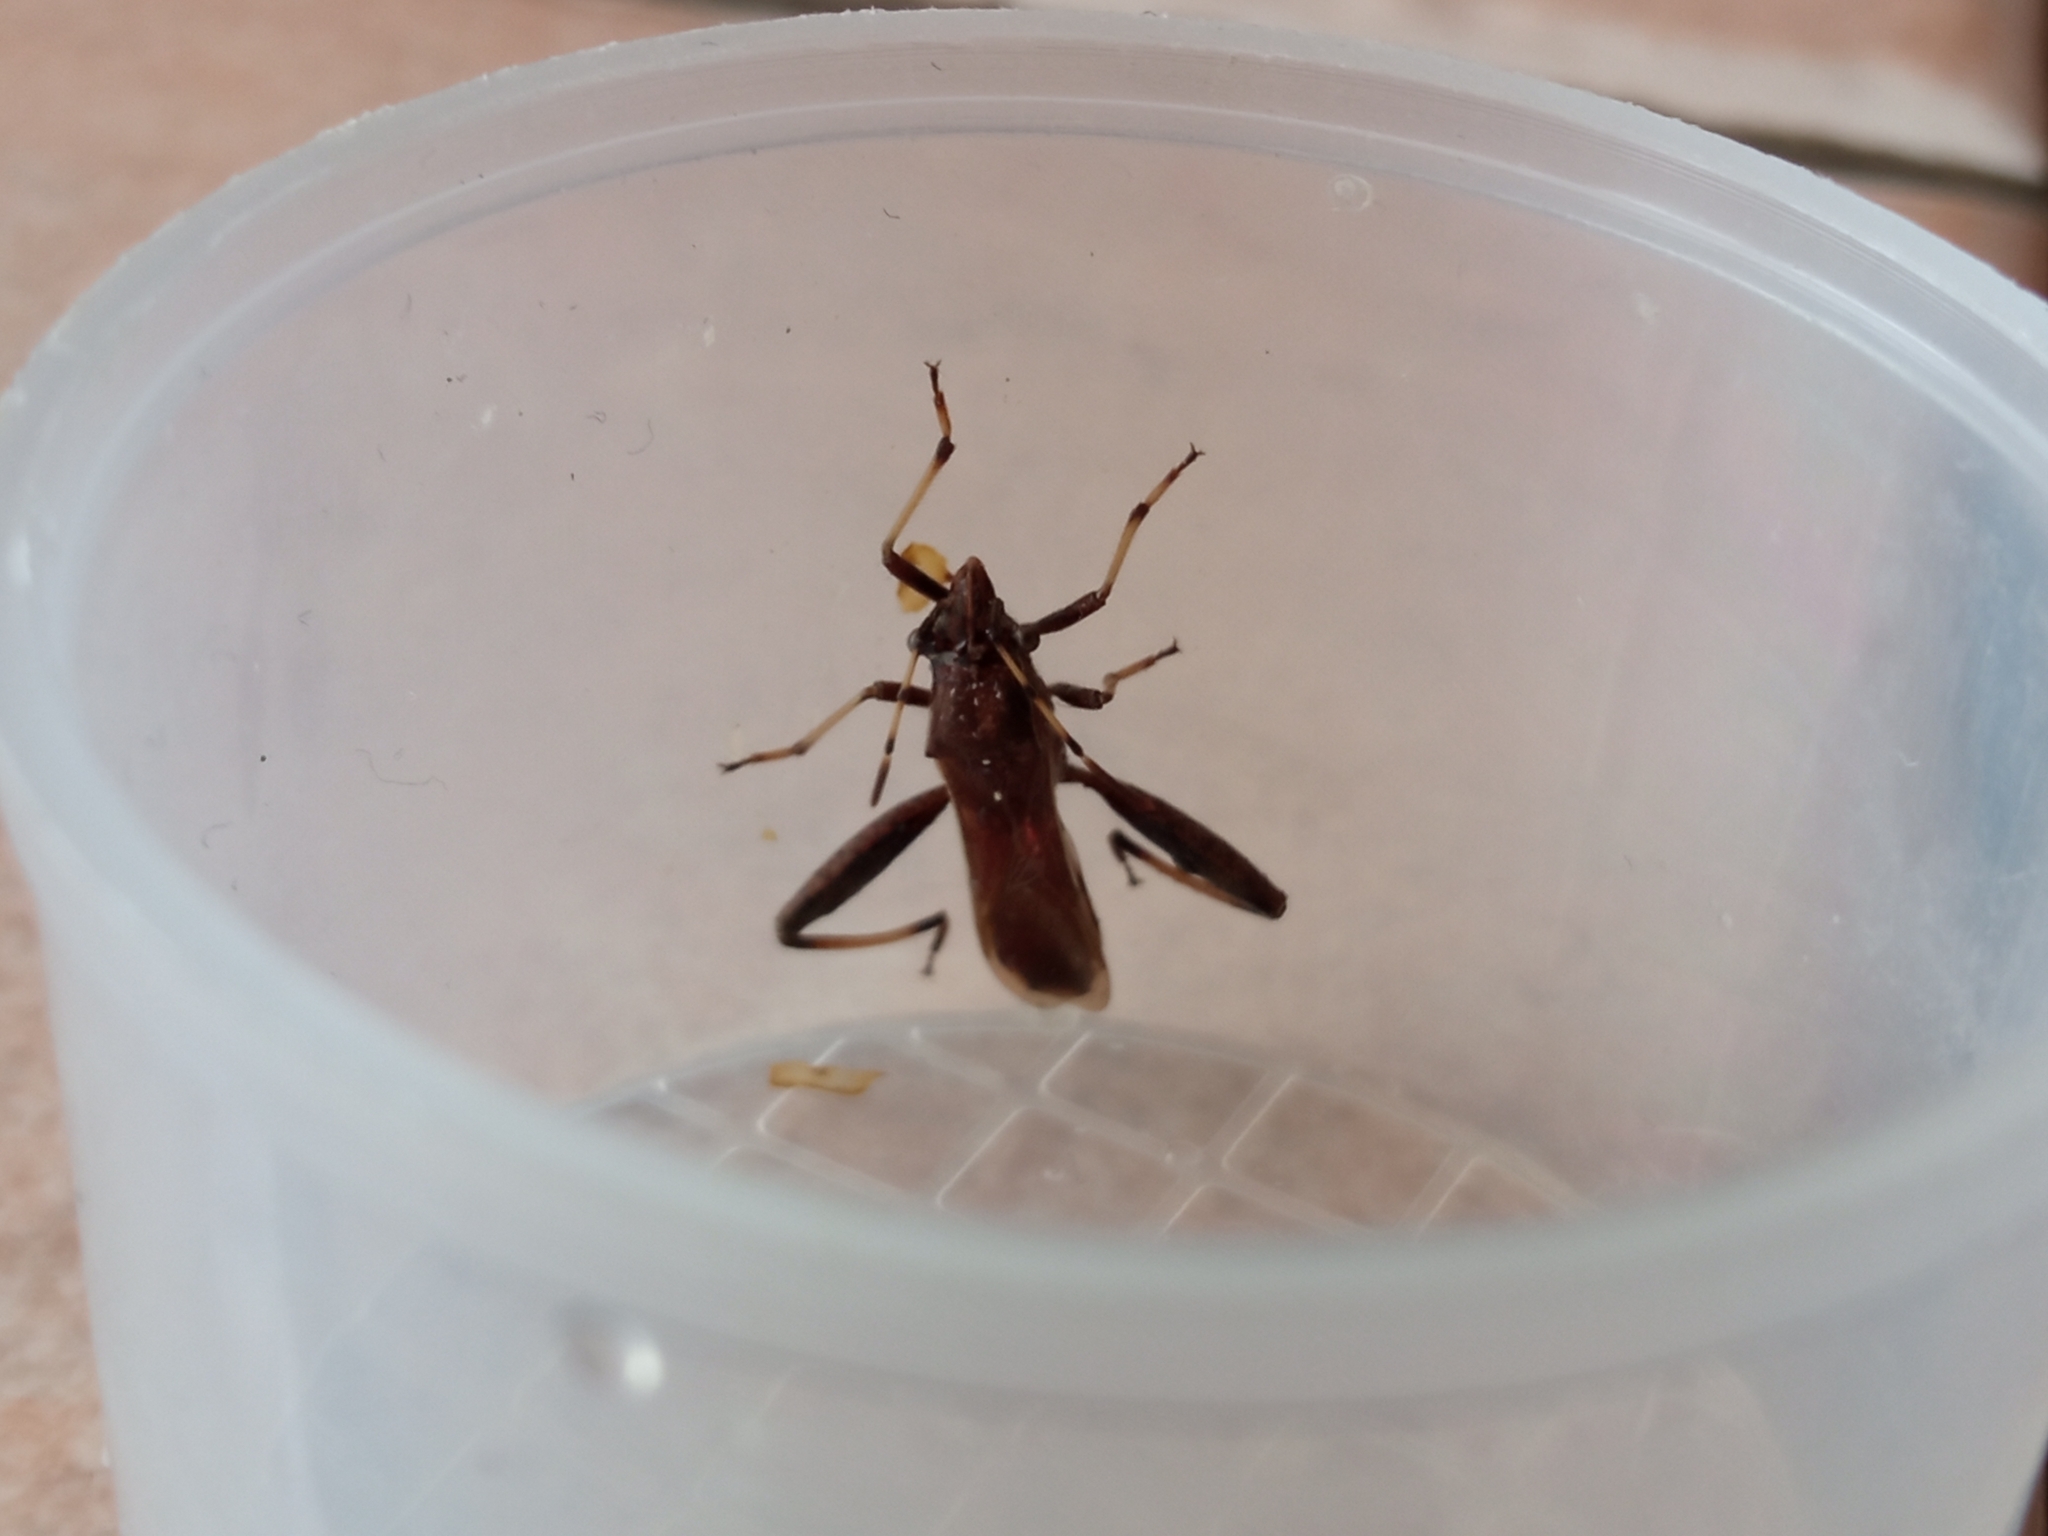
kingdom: Animalia
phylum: Arthropoda
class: Insecta
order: Hemiptera
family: Alydidae
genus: Camptopus
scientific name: Camptopus lateralis
